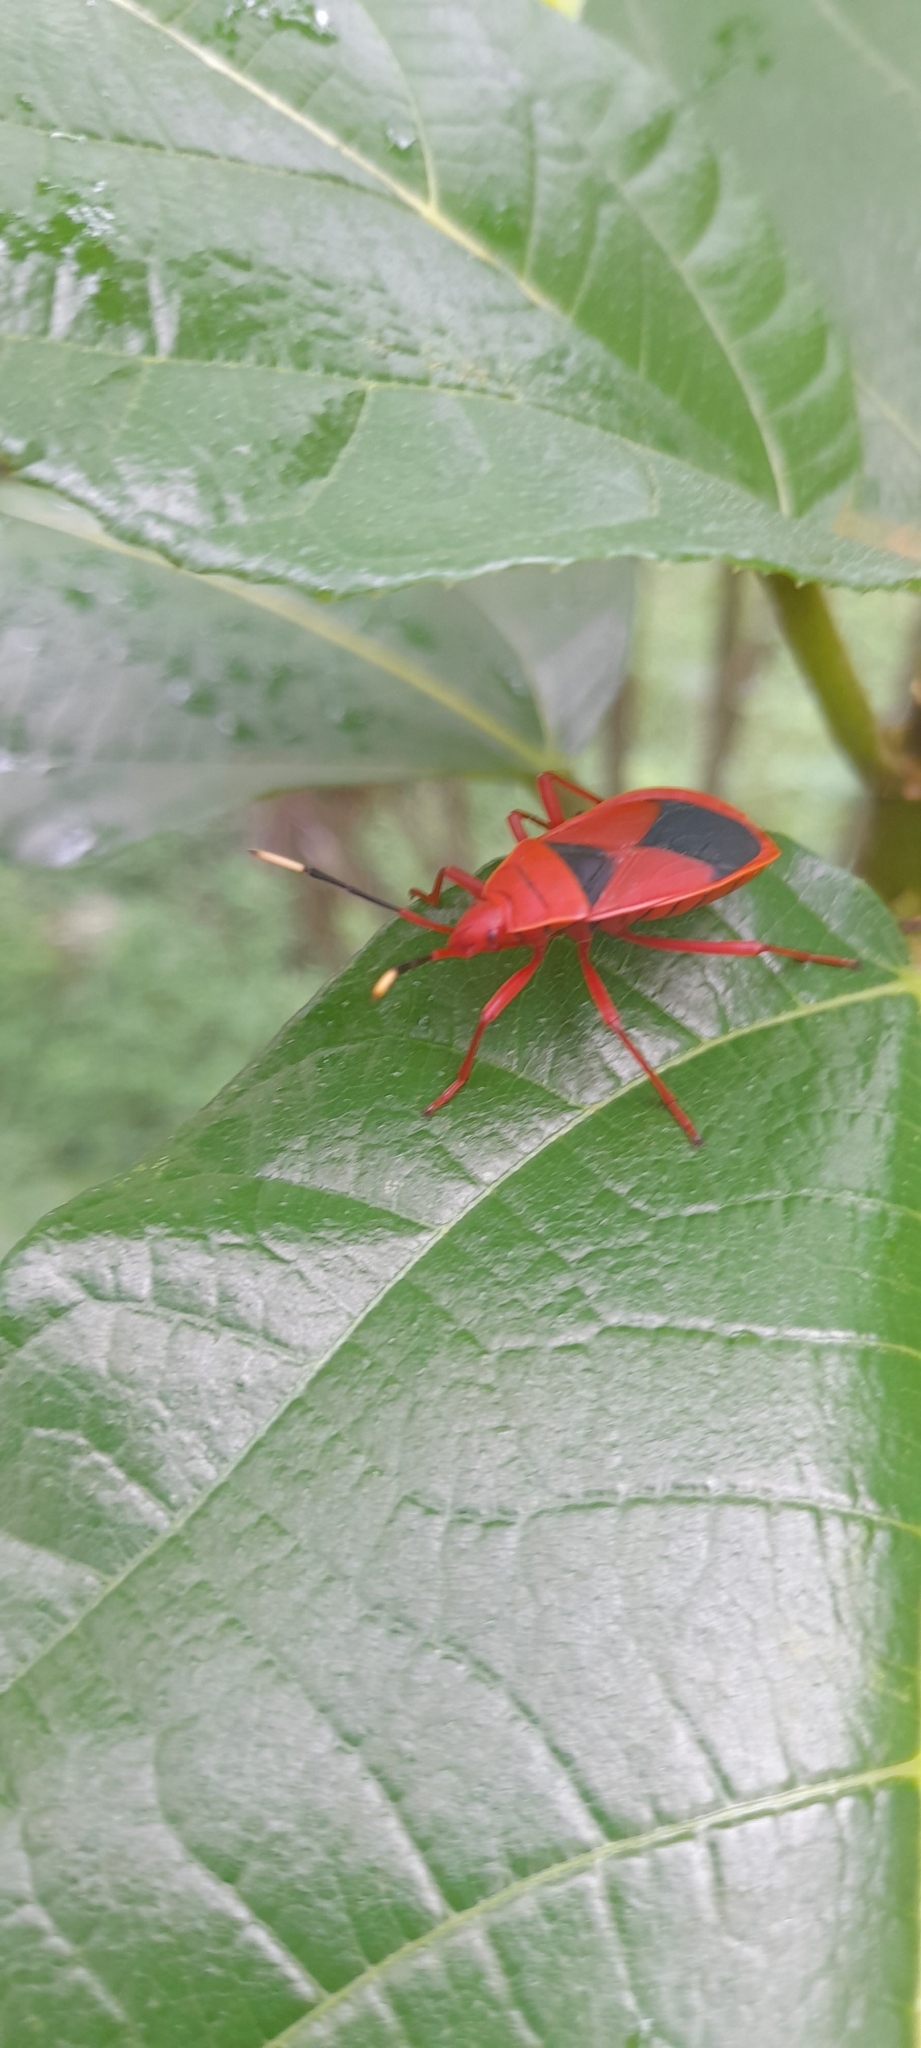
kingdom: Animalia
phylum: Arthropoda
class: Insecta
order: Hemiptera
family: Pyrrhocoridae
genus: Probergrothius
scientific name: Probergrothius
